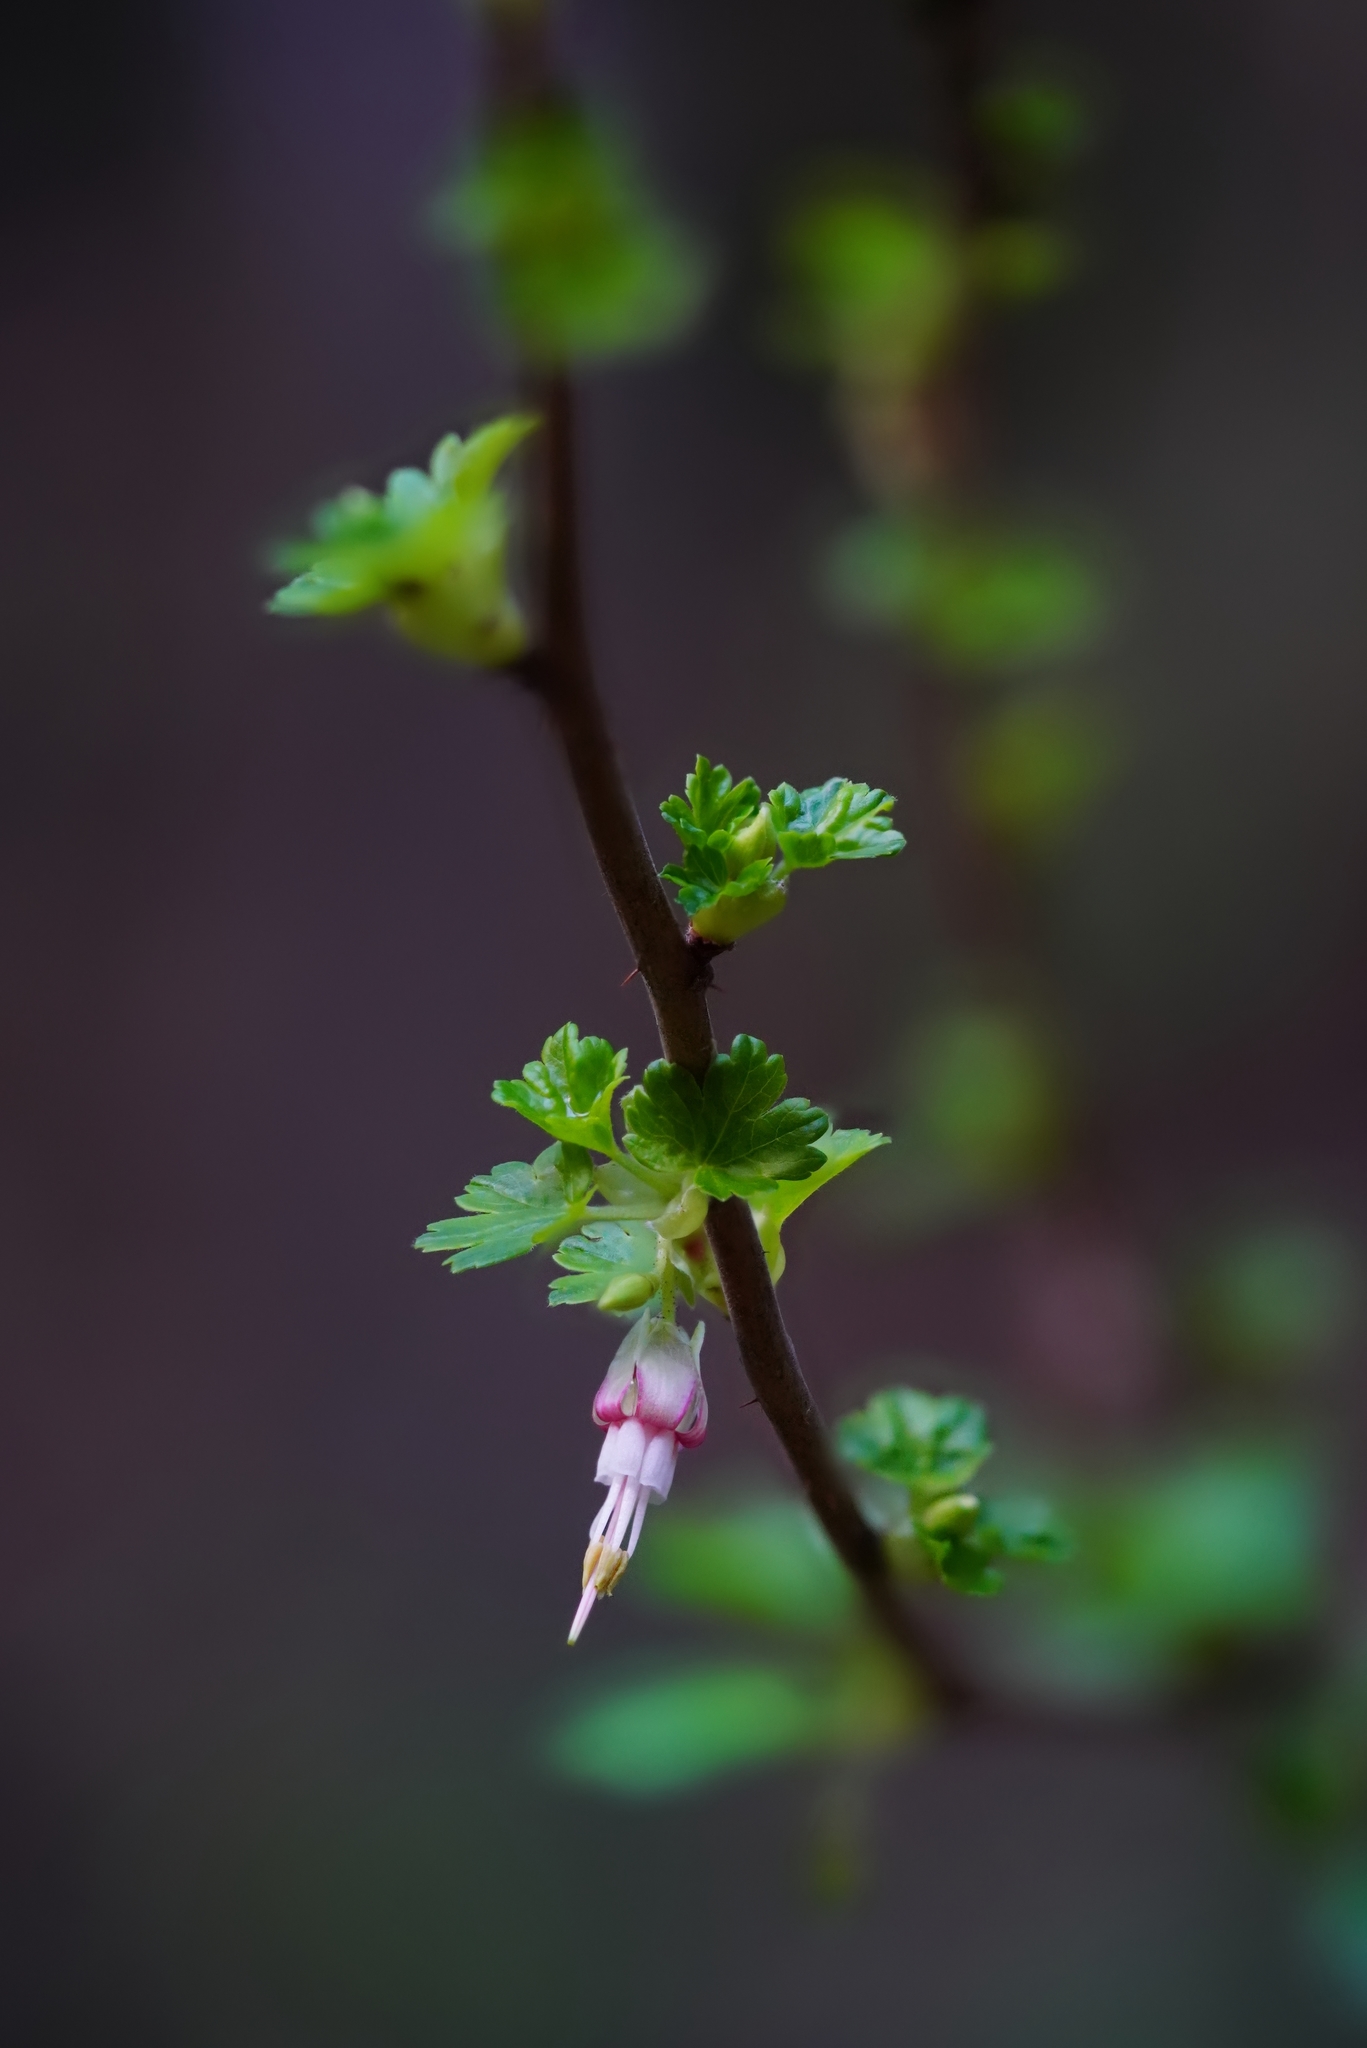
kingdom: Plantae
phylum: Tracheophyta
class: Magnoliopsida
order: Saxifragales
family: Grossulariaceae
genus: Ribes
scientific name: Ribes californicum
